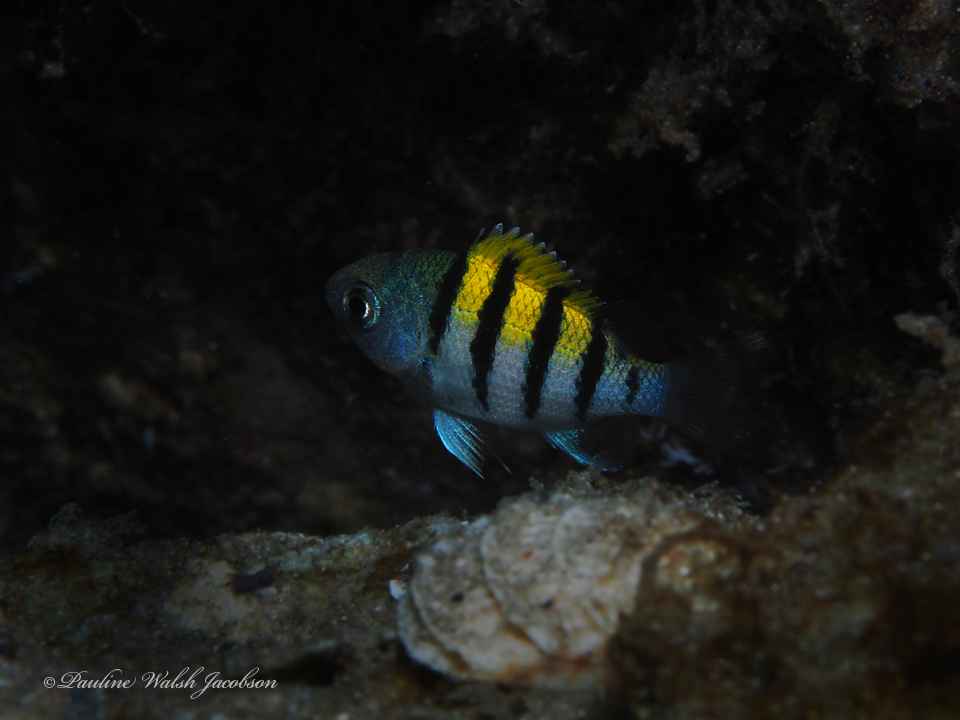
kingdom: Animalia
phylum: Chordata
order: Perciformes
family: Pomacentridae
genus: Abudefduf
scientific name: Abudefduf saxatilis
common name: Sergeant major
